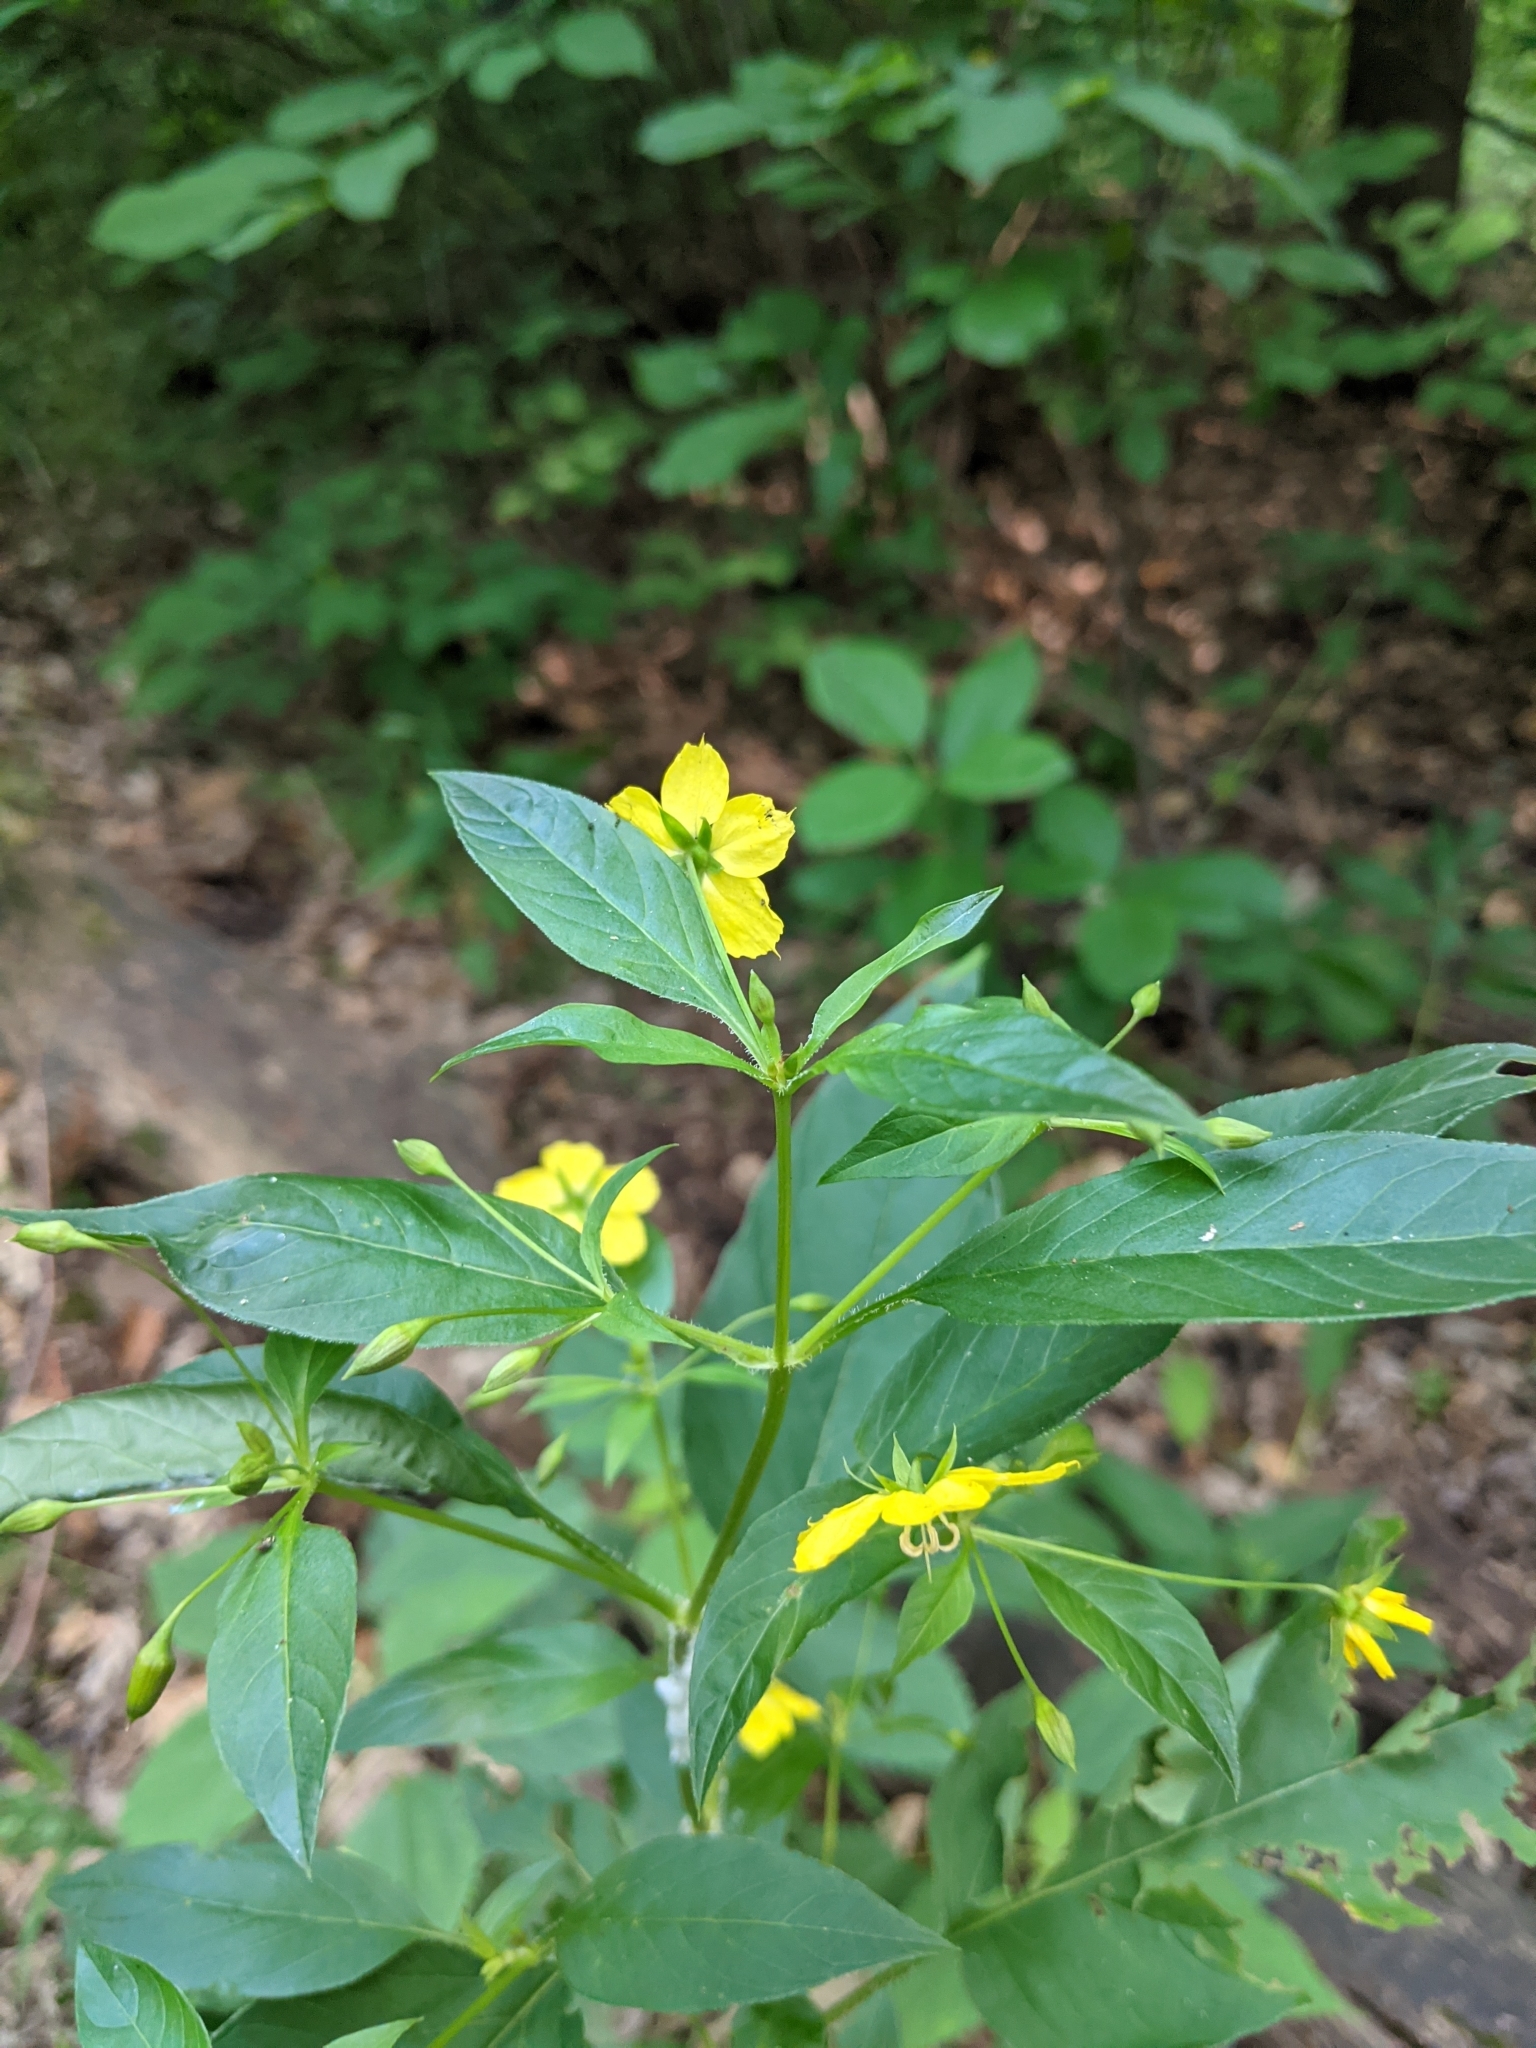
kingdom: Plantae
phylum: Tracheophyta
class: Magnoliopsida
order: Ericales
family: Primulaceae
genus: Lysimachia
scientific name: Lysimachia ciliata
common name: Fringed loosestrife
